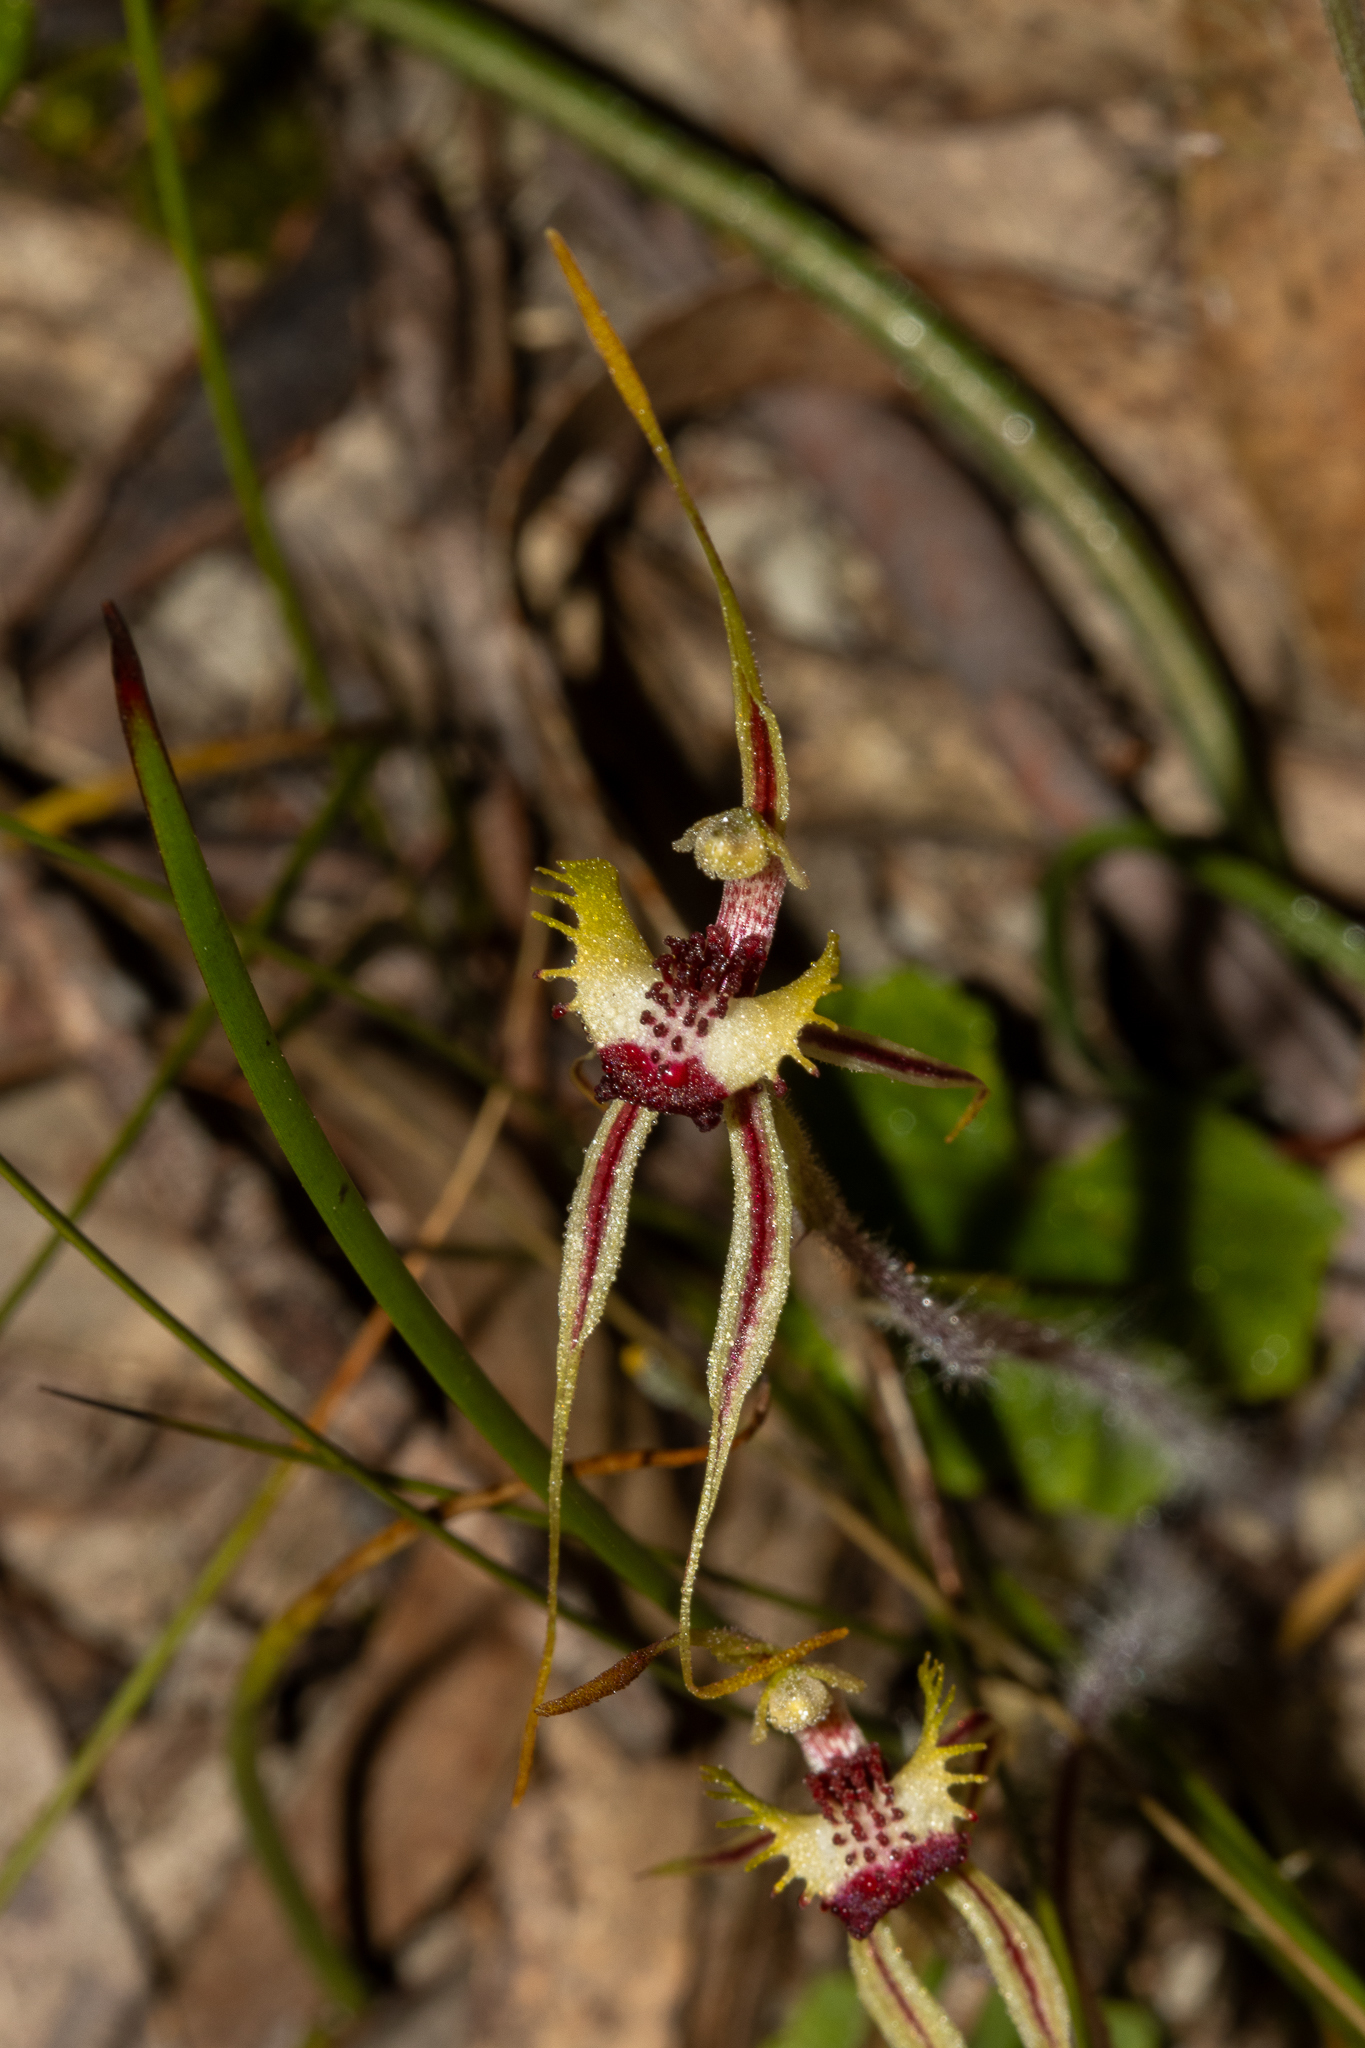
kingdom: Plantae
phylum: Tracheophyta
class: Liliopsida
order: Asparagales
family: Orchidaceae
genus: Caladenia
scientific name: Caladenia parva
